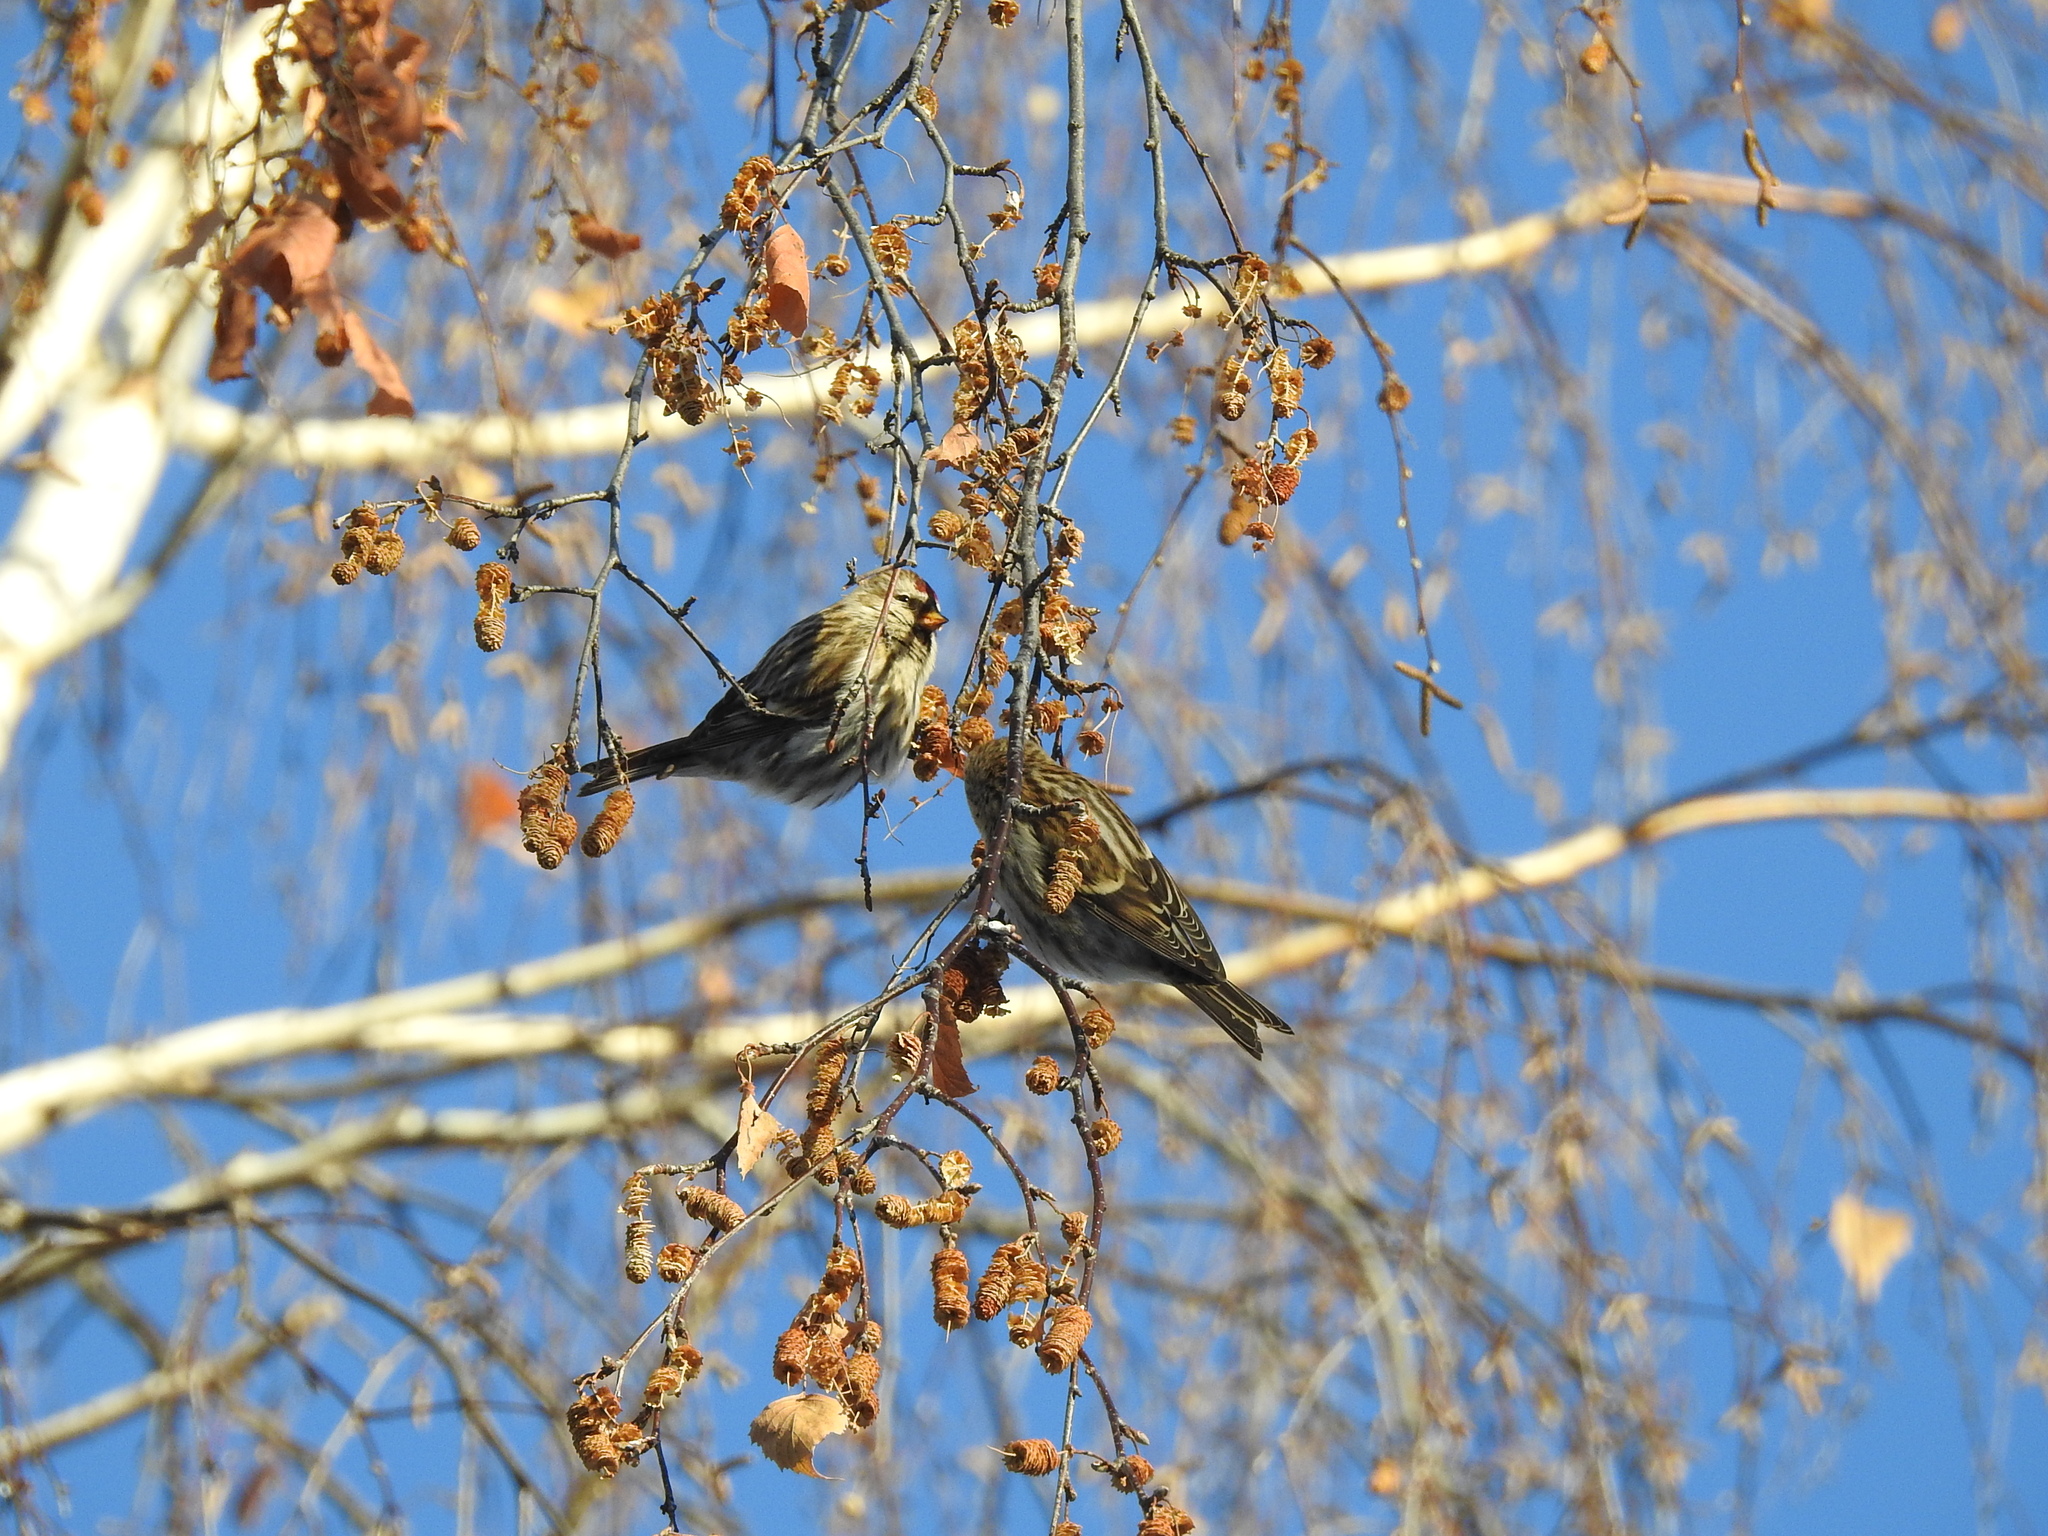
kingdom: Animalia
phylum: Chordata
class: Aves
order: Passeriformes
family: Fringillidae
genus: Acanthis
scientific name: Acanthis flammea
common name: Common redpoll
